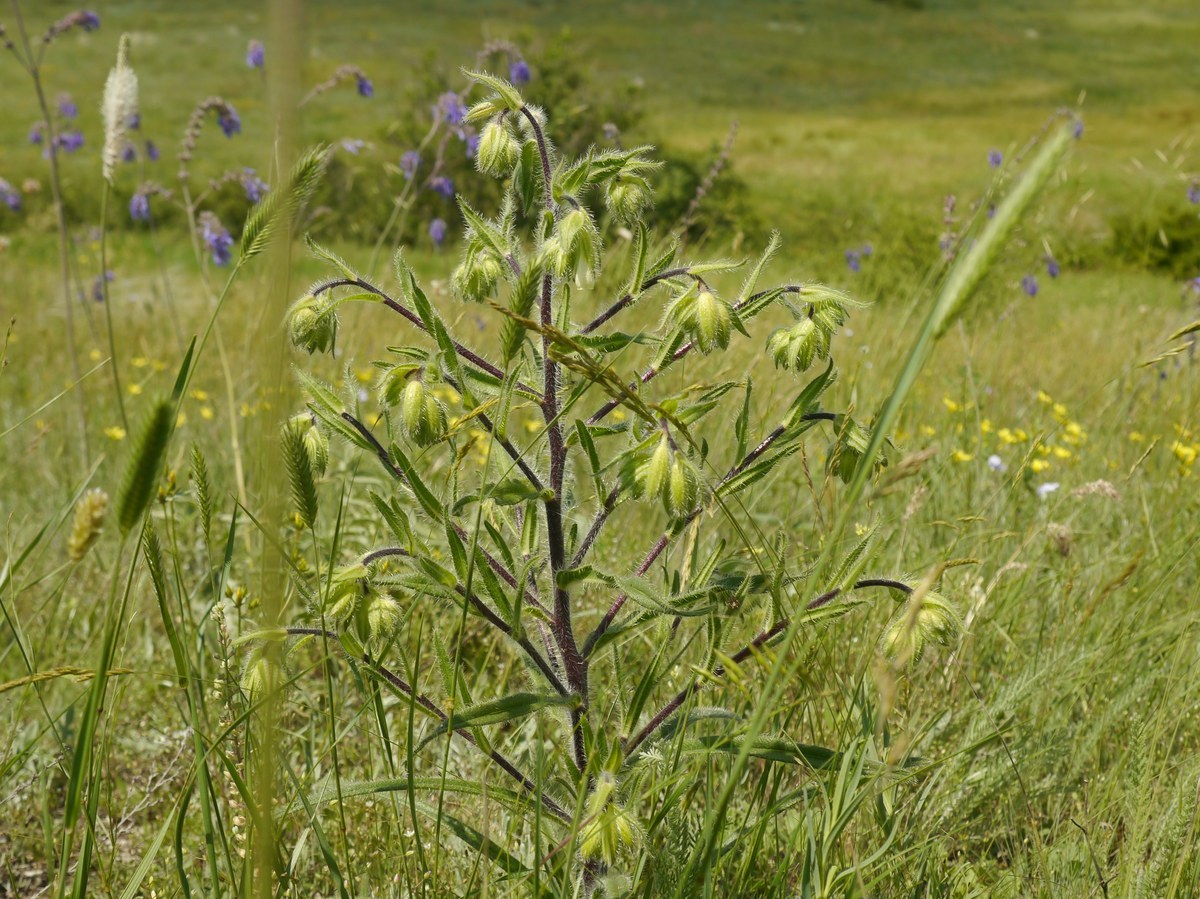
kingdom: Plantae
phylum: Tracheophyta
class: Magnoliopsida
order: Boraginales
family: Boraginaceae
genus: Onosma
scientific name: Onosma visianii
